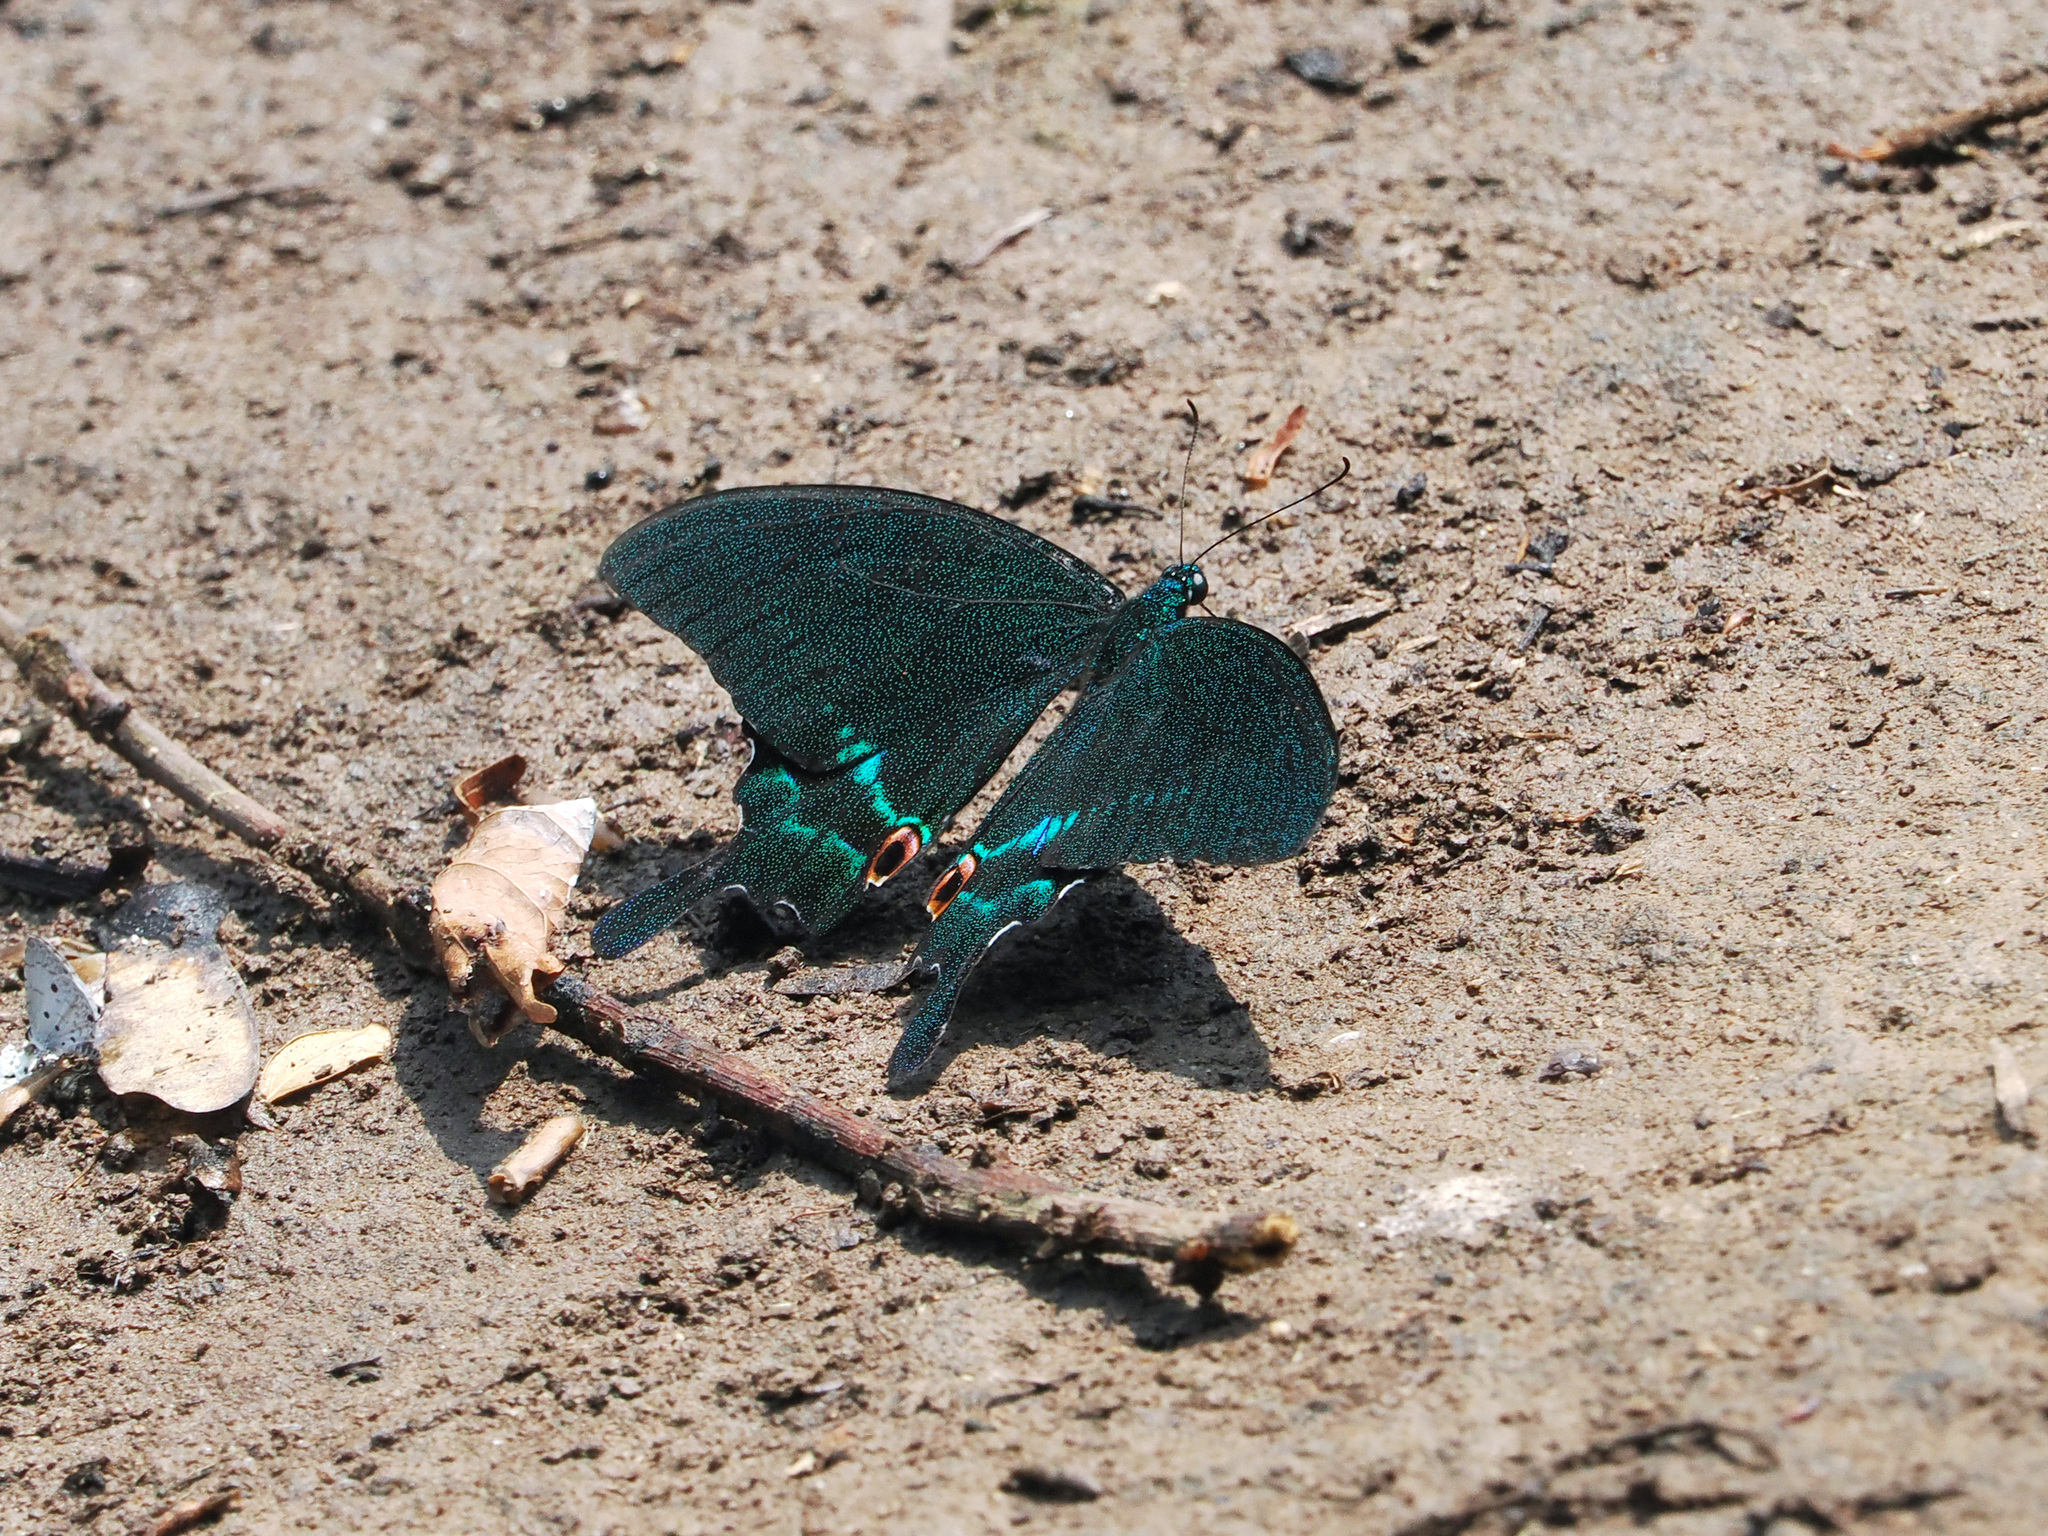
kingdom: Animalia
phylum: Arthropoda
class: Insecta
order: Lepidoptera
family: Papilionidae
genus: Papilio
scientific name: Papilio paris
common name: Paris peacock
